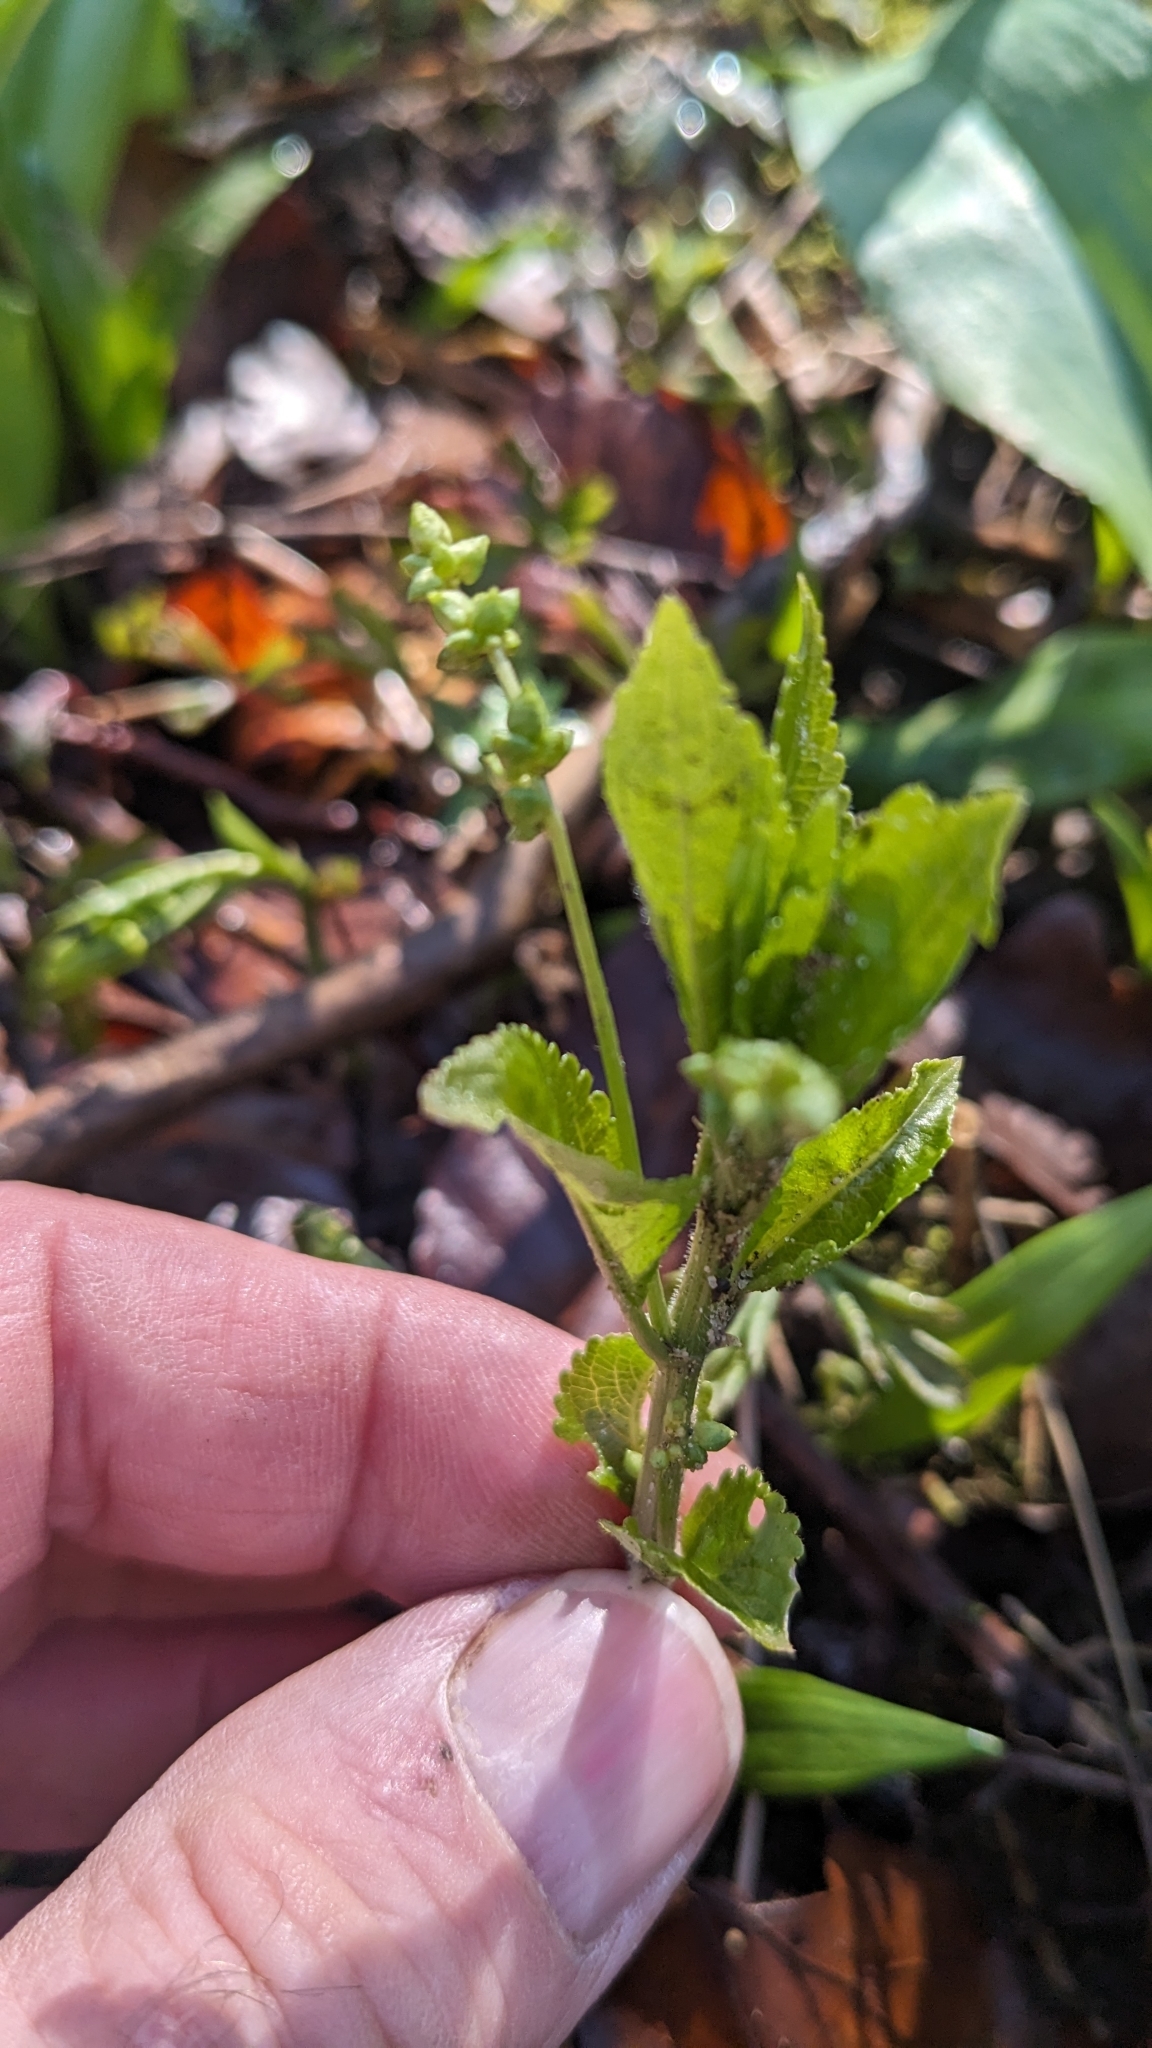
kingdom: Plantae
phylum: Tracheophyta
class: Magnoliopsida
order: Malpighiales
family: Euphorbiaceae
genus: Mercurialis
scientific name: Mercurialis perennis
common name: Dog mercury
